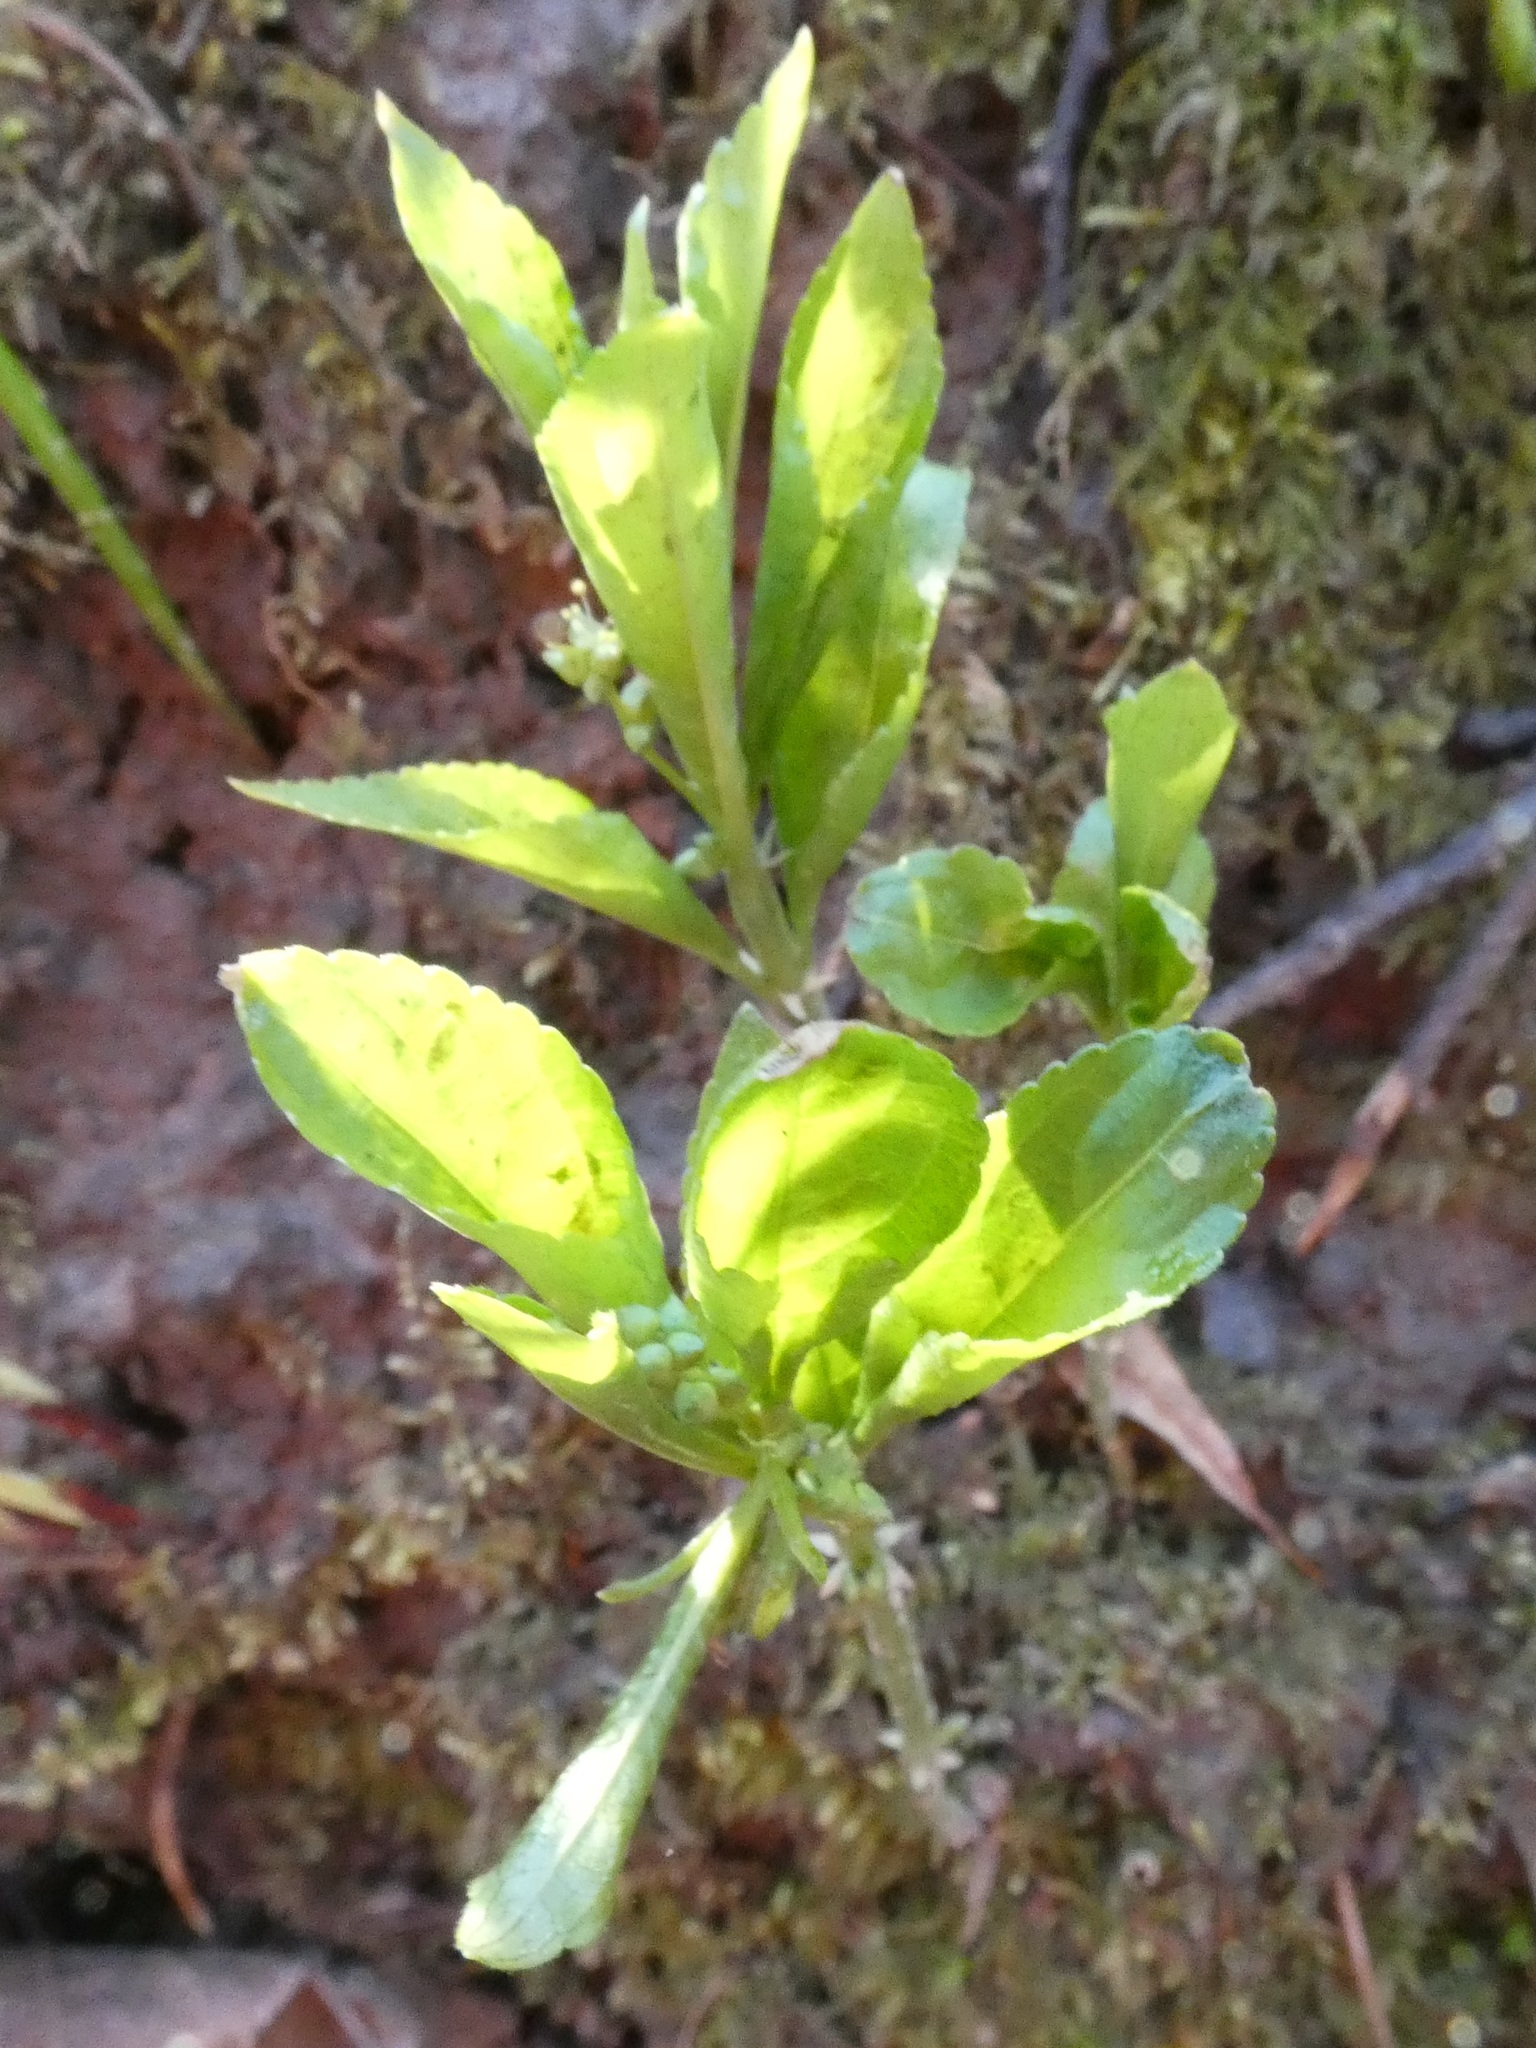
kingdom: Plantae
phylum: Tracheophyta
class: Magnoliopsida
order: Malpighiales
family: Euphorbiaceae
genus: Mercurialis
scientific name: Mercurialis perennis
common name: Dog mercury
